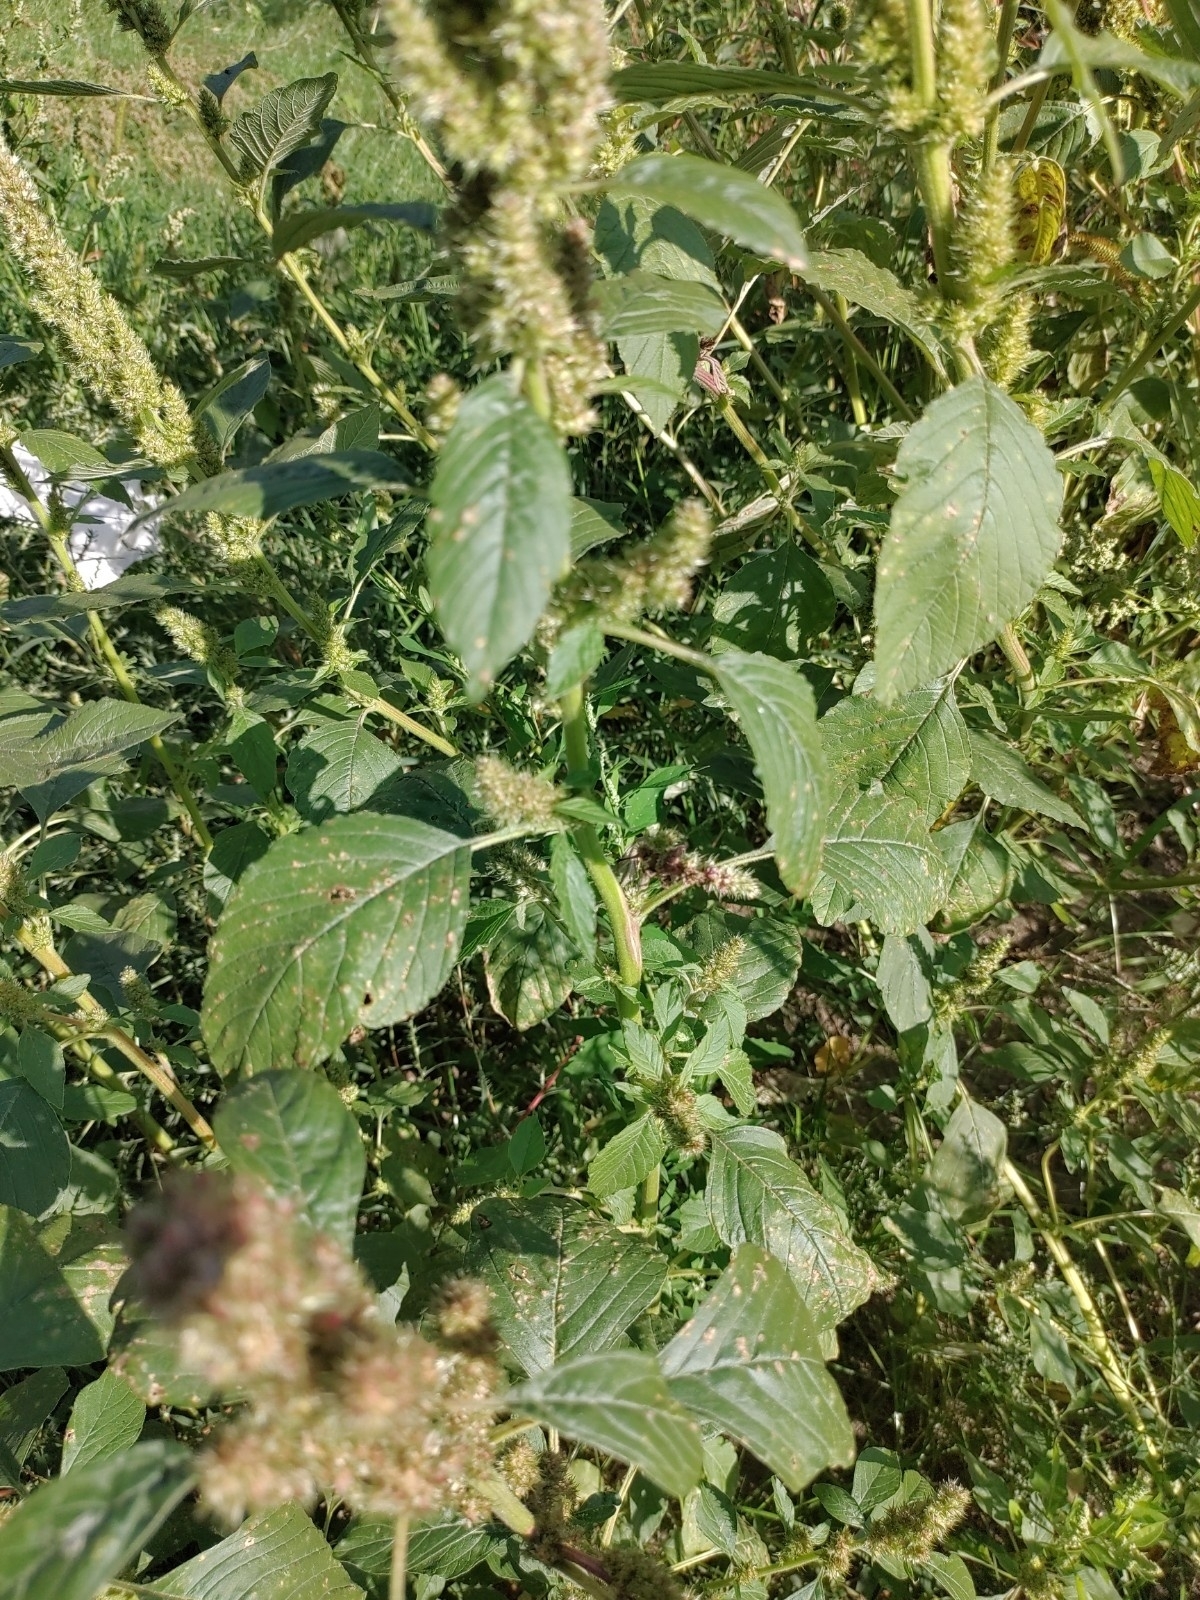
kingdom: Plantae
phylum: Tracheophyta
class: Magnoliopsida
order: Caryophyllales
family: Amaranthaceae
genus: Amaranthus
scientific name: Amaranthus retroflexus
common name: Redroot amaranth
